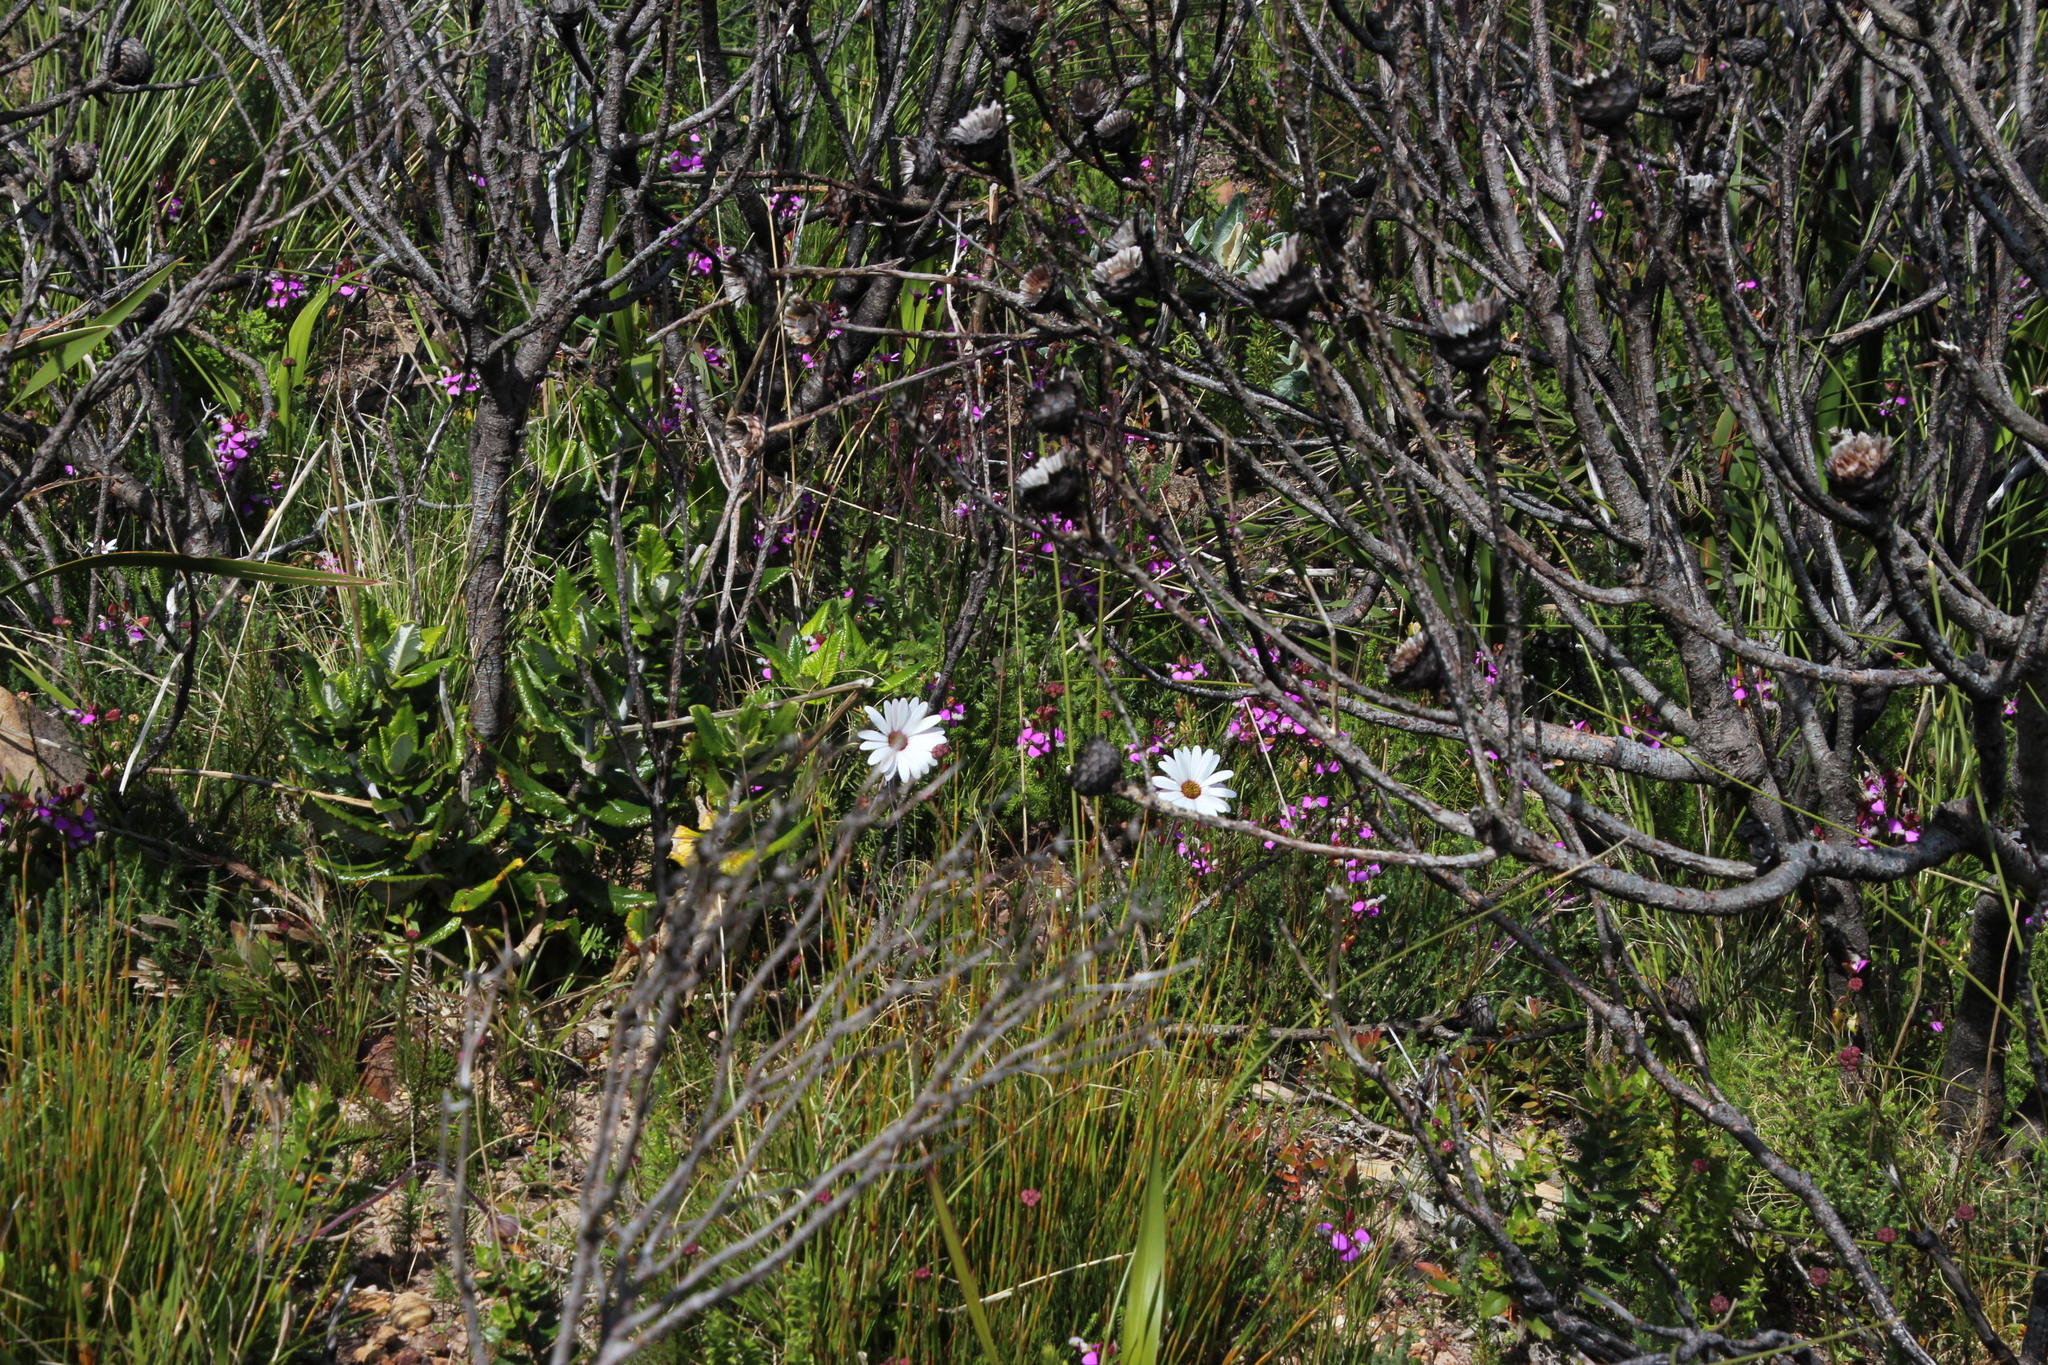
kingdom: Plantae
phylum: Tracheophyta
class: Magnoliopsida
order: Fabales
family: Polygalaceae
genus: Polygala
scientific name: Polygala bracteolata
